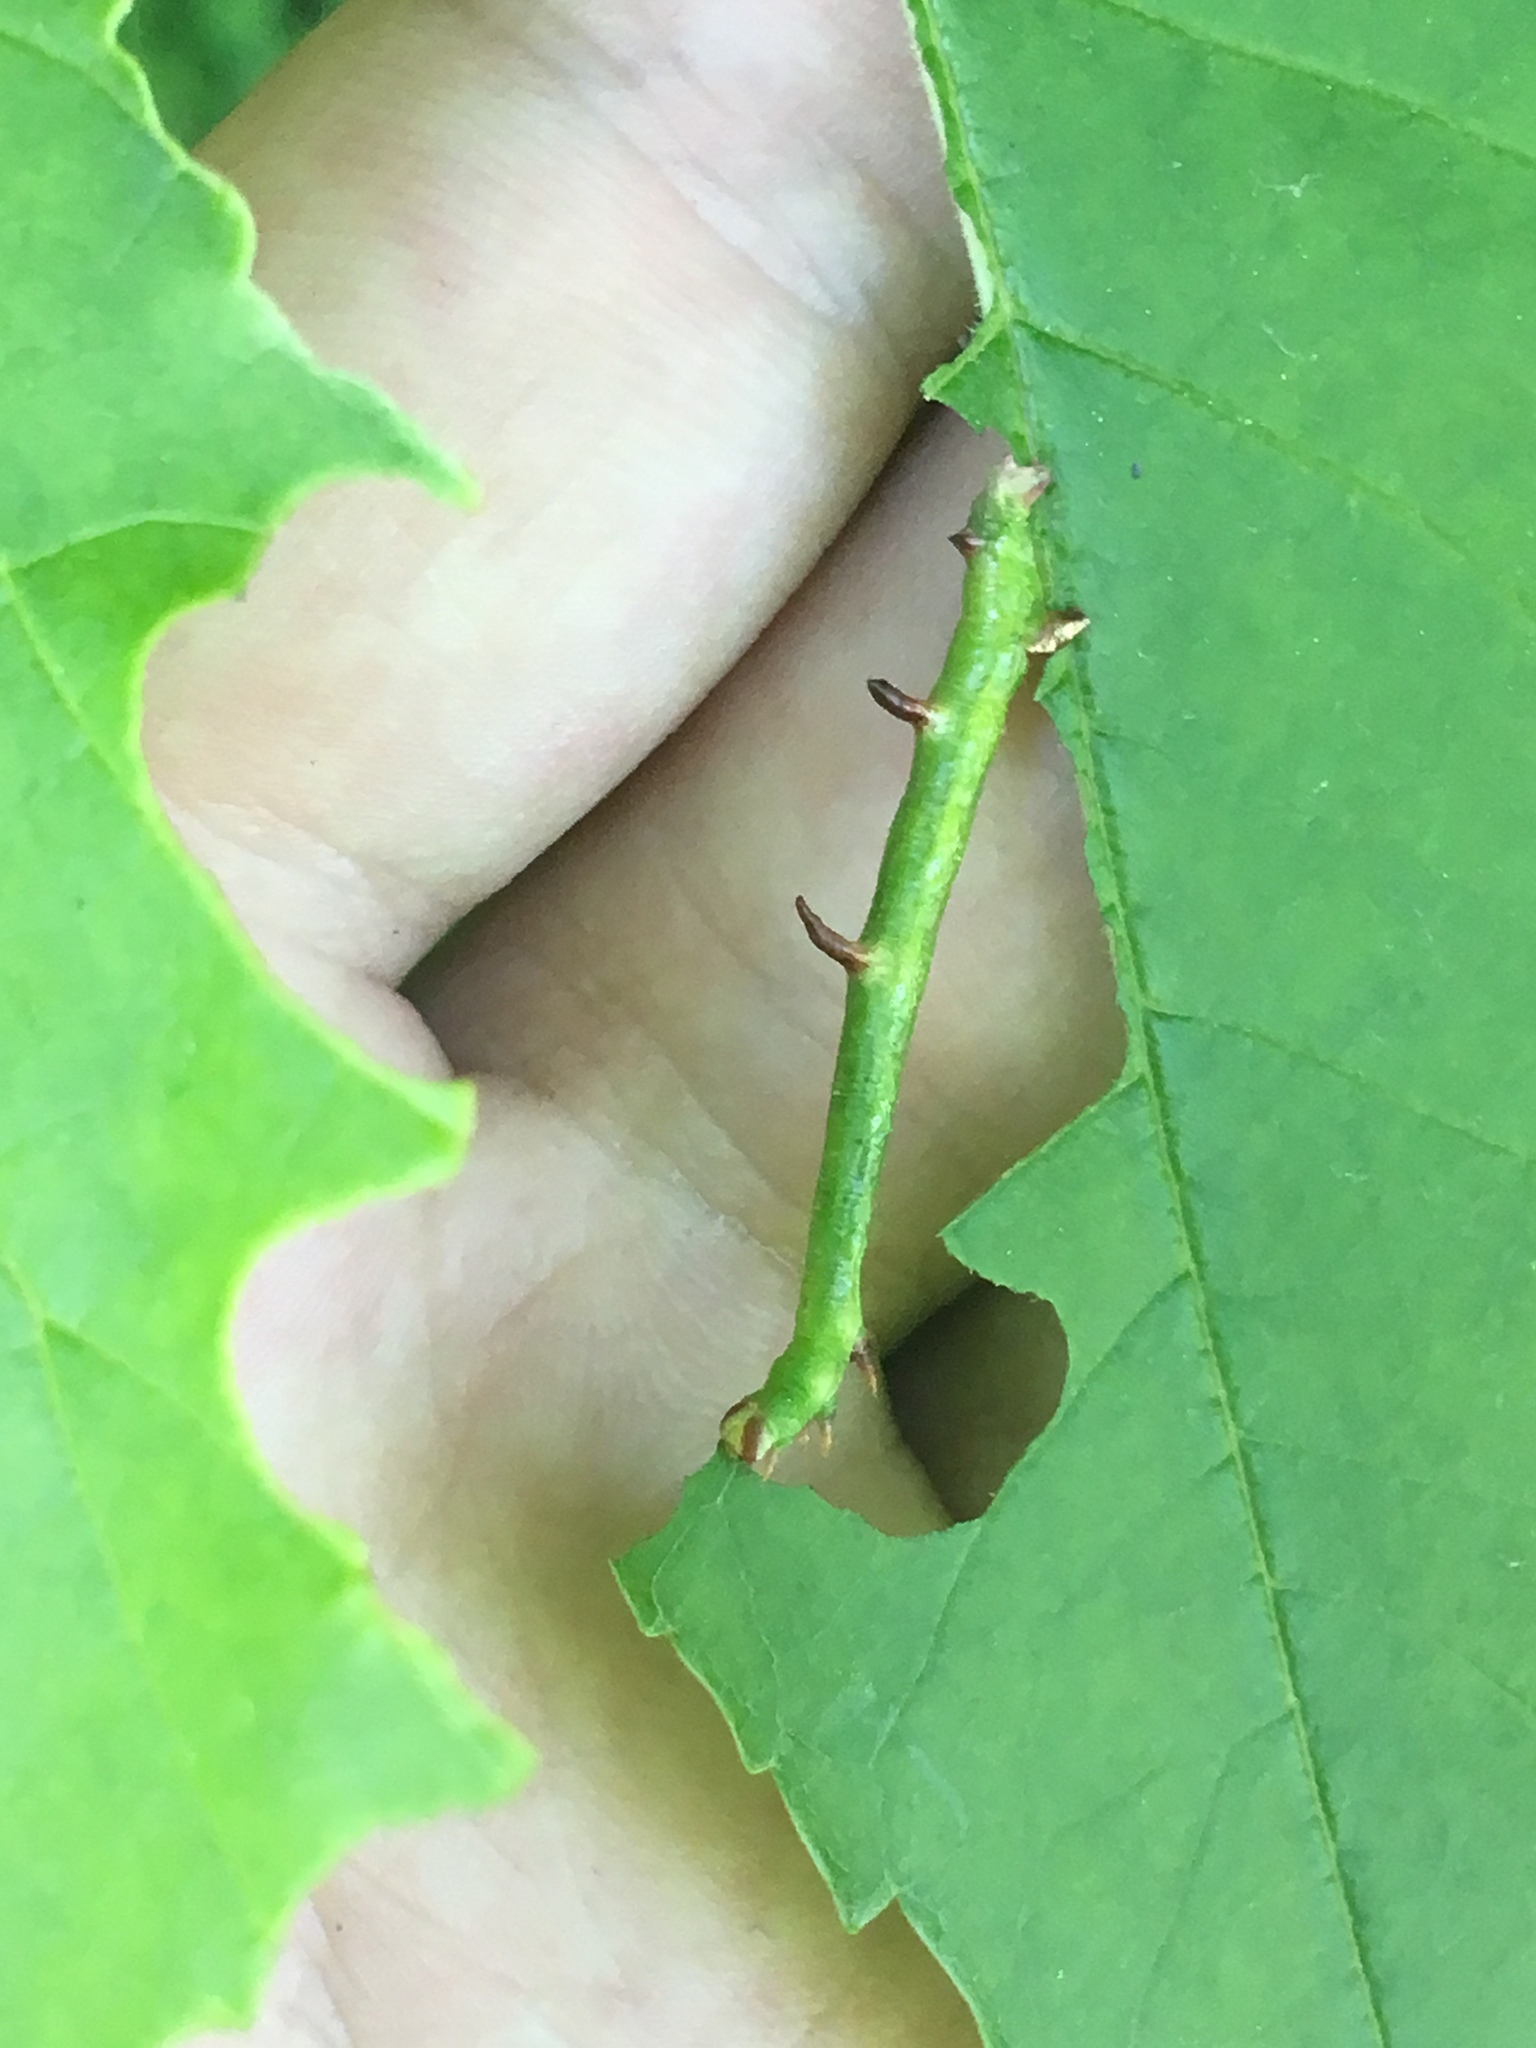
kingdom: Animalia
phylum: Arthropoda
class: Insecta
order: Lepidoptera
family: Geometridae
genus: Sicya
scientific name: Sicya macularia
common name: Sharp-lined yellow
